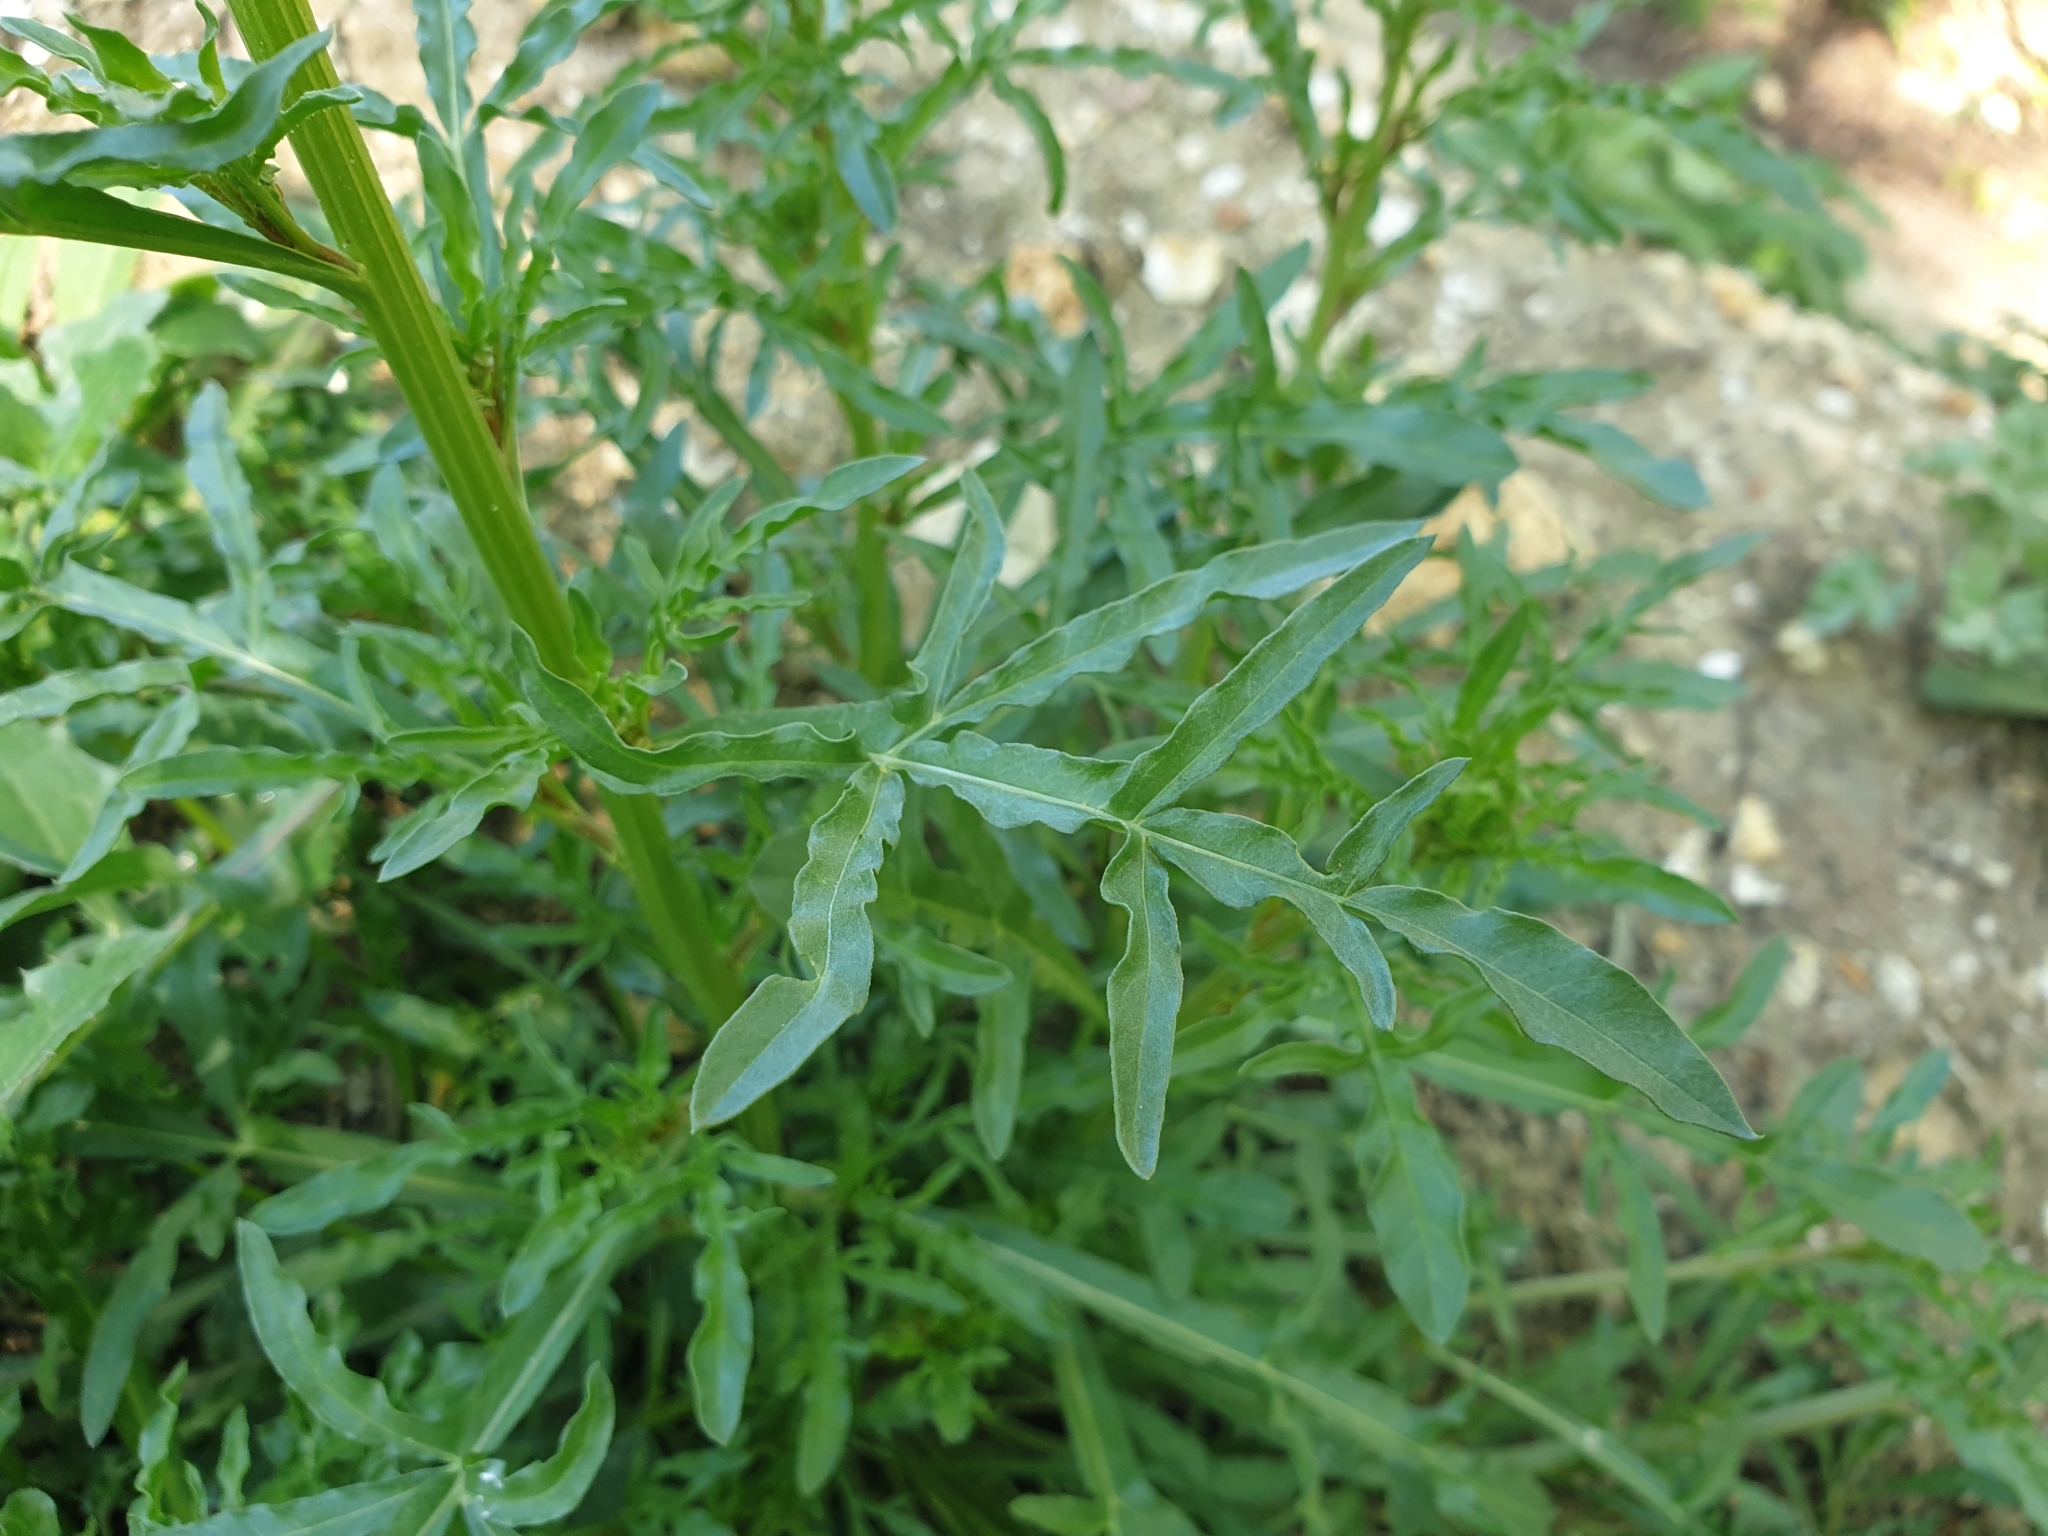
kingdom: Plantae
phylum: Tracheophyta
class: Magnoliopsida
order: Brassicales
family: Resedaceae
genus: Reseda
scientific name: Reseda lutea
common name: Wild mignonette
